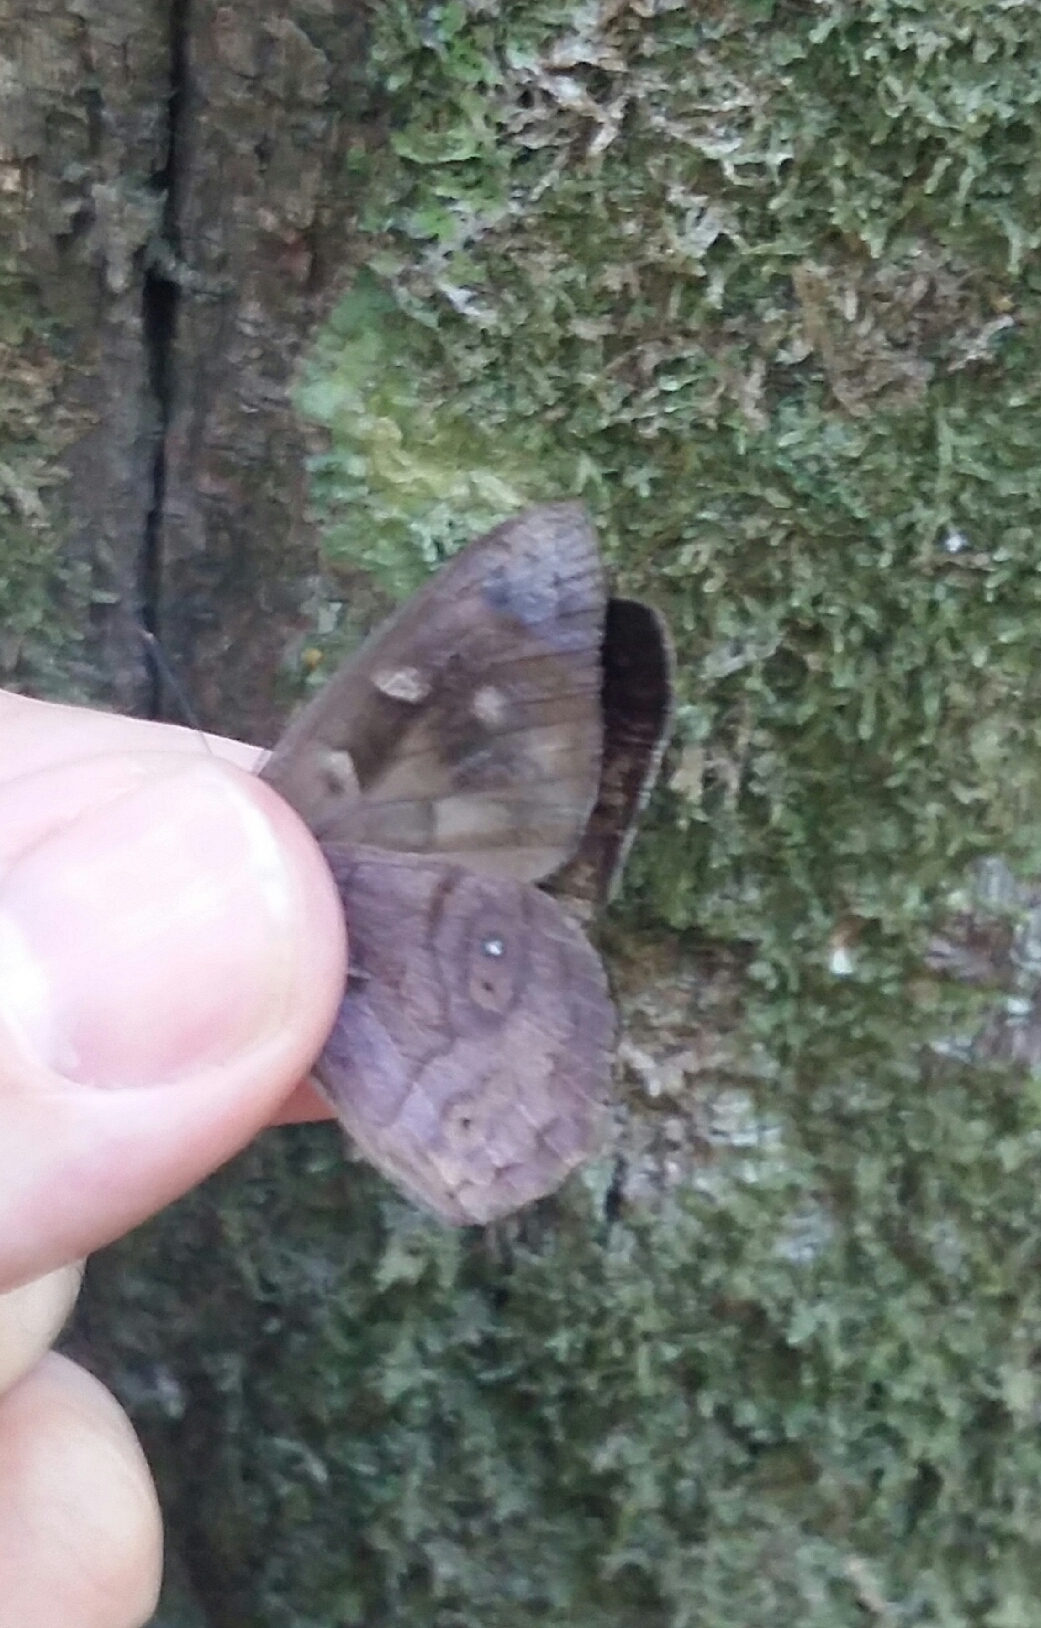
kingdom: Animalia
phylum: Arthropoda
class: Insecta
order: Lepidoptera
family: Nymphalidae
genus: Eunica
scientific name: Eunica pusilla
